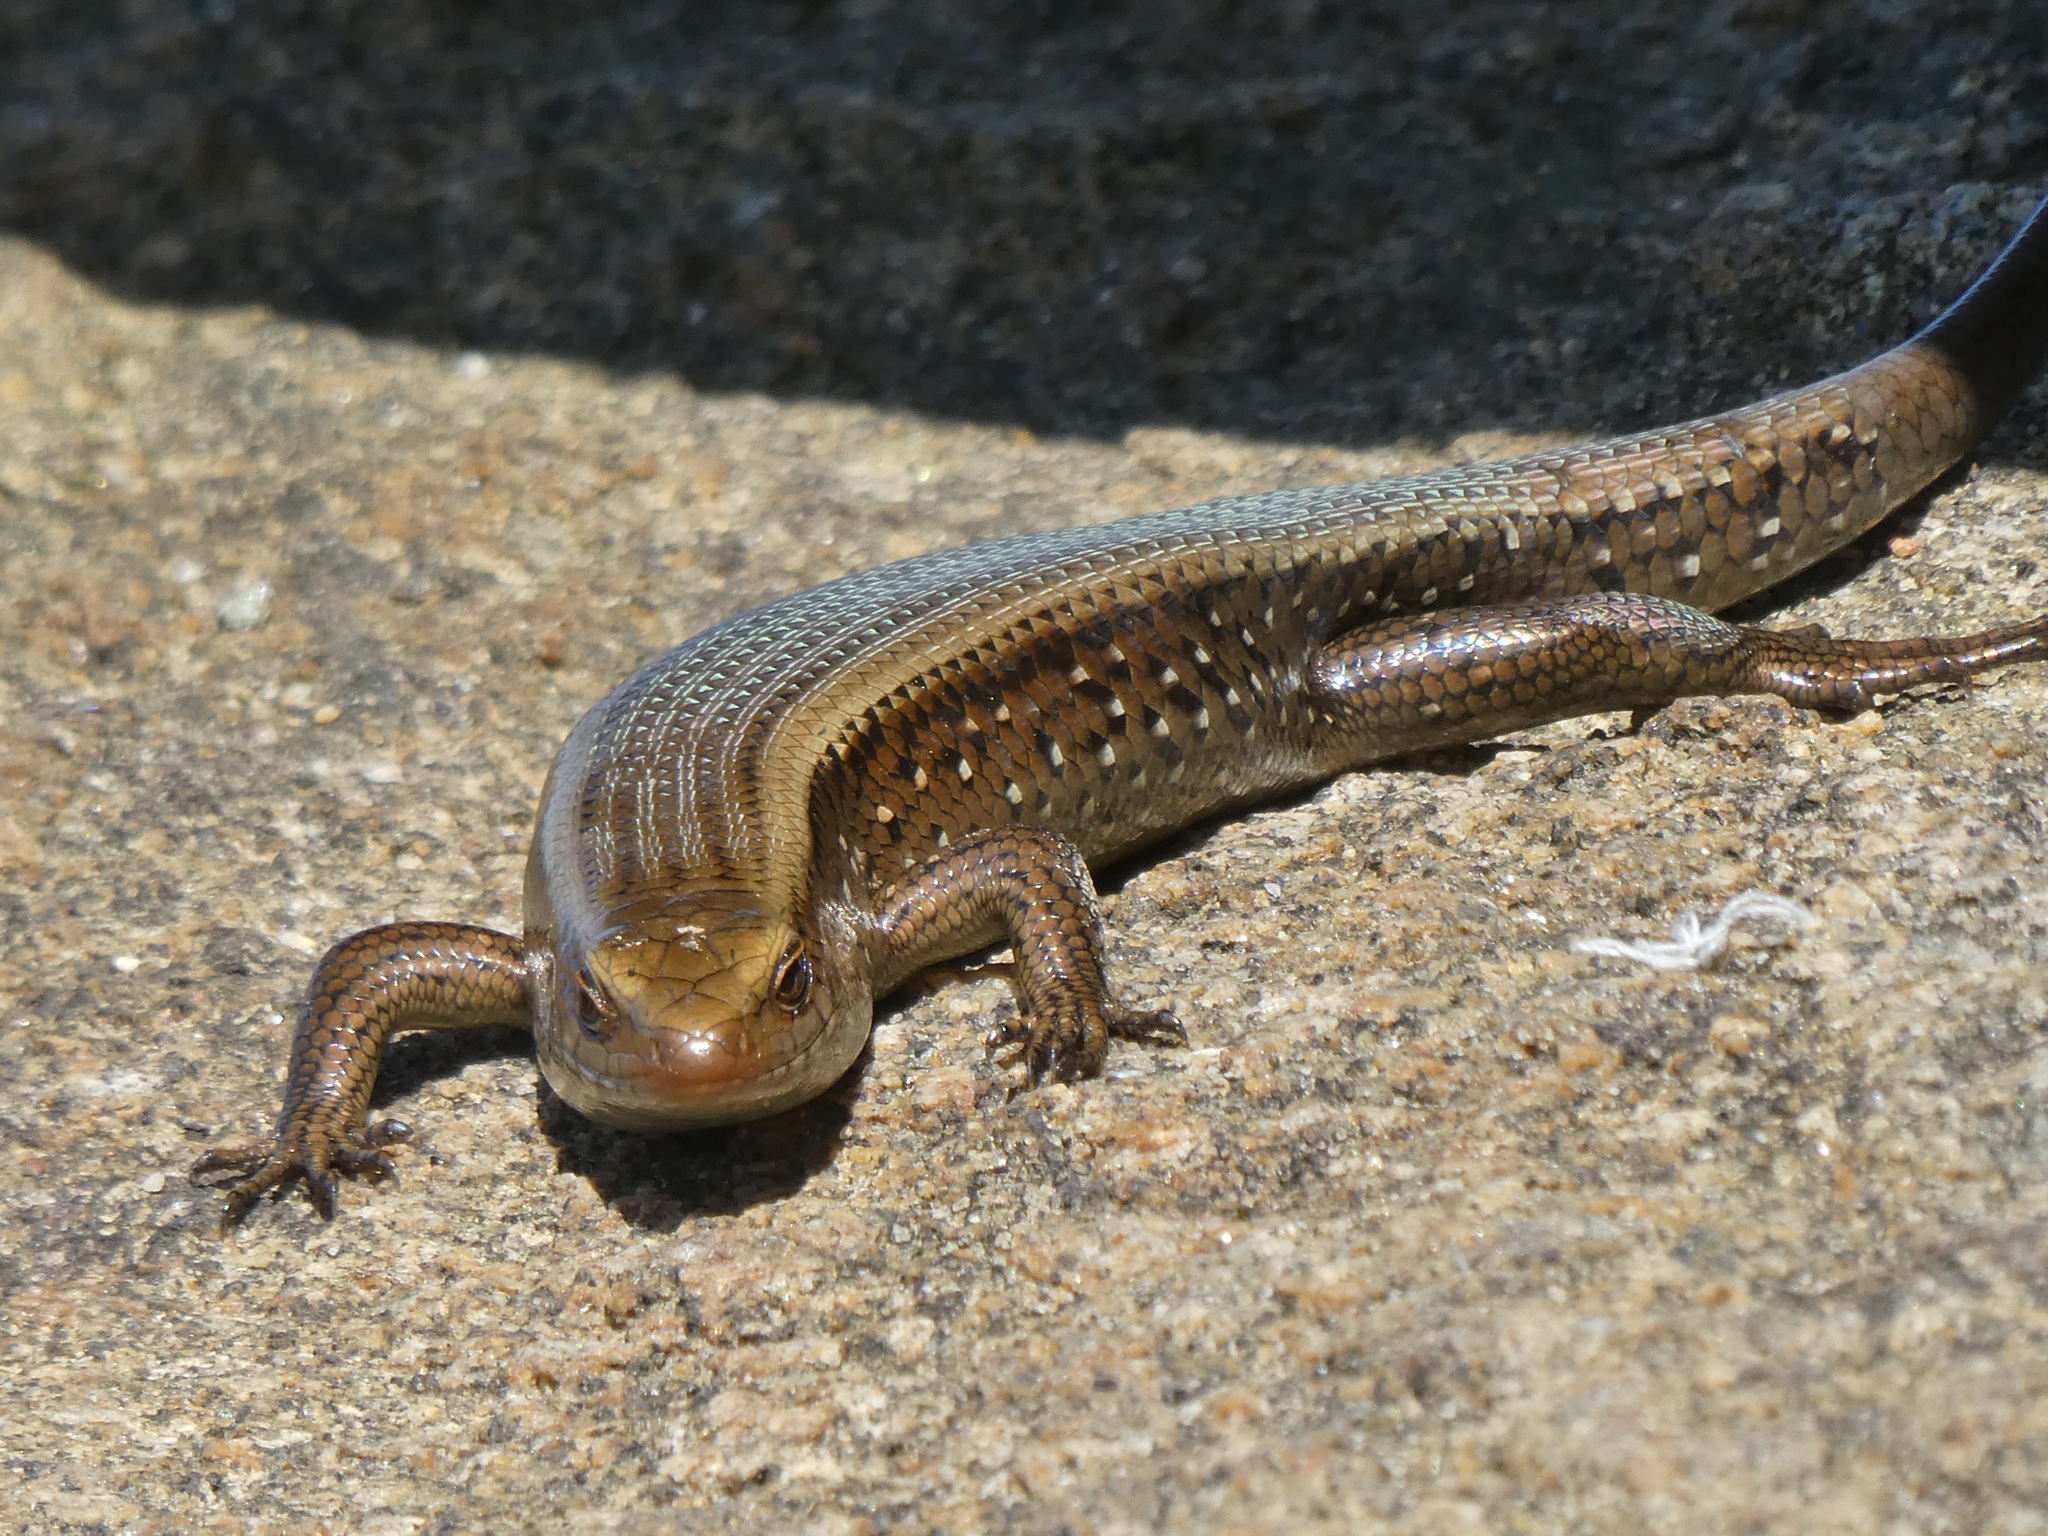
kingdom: Animalia
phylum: Chordata
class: Squamata
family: Scincidae
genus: Eutropis
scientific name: Eutropis multifasciata
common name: Common mabuya
